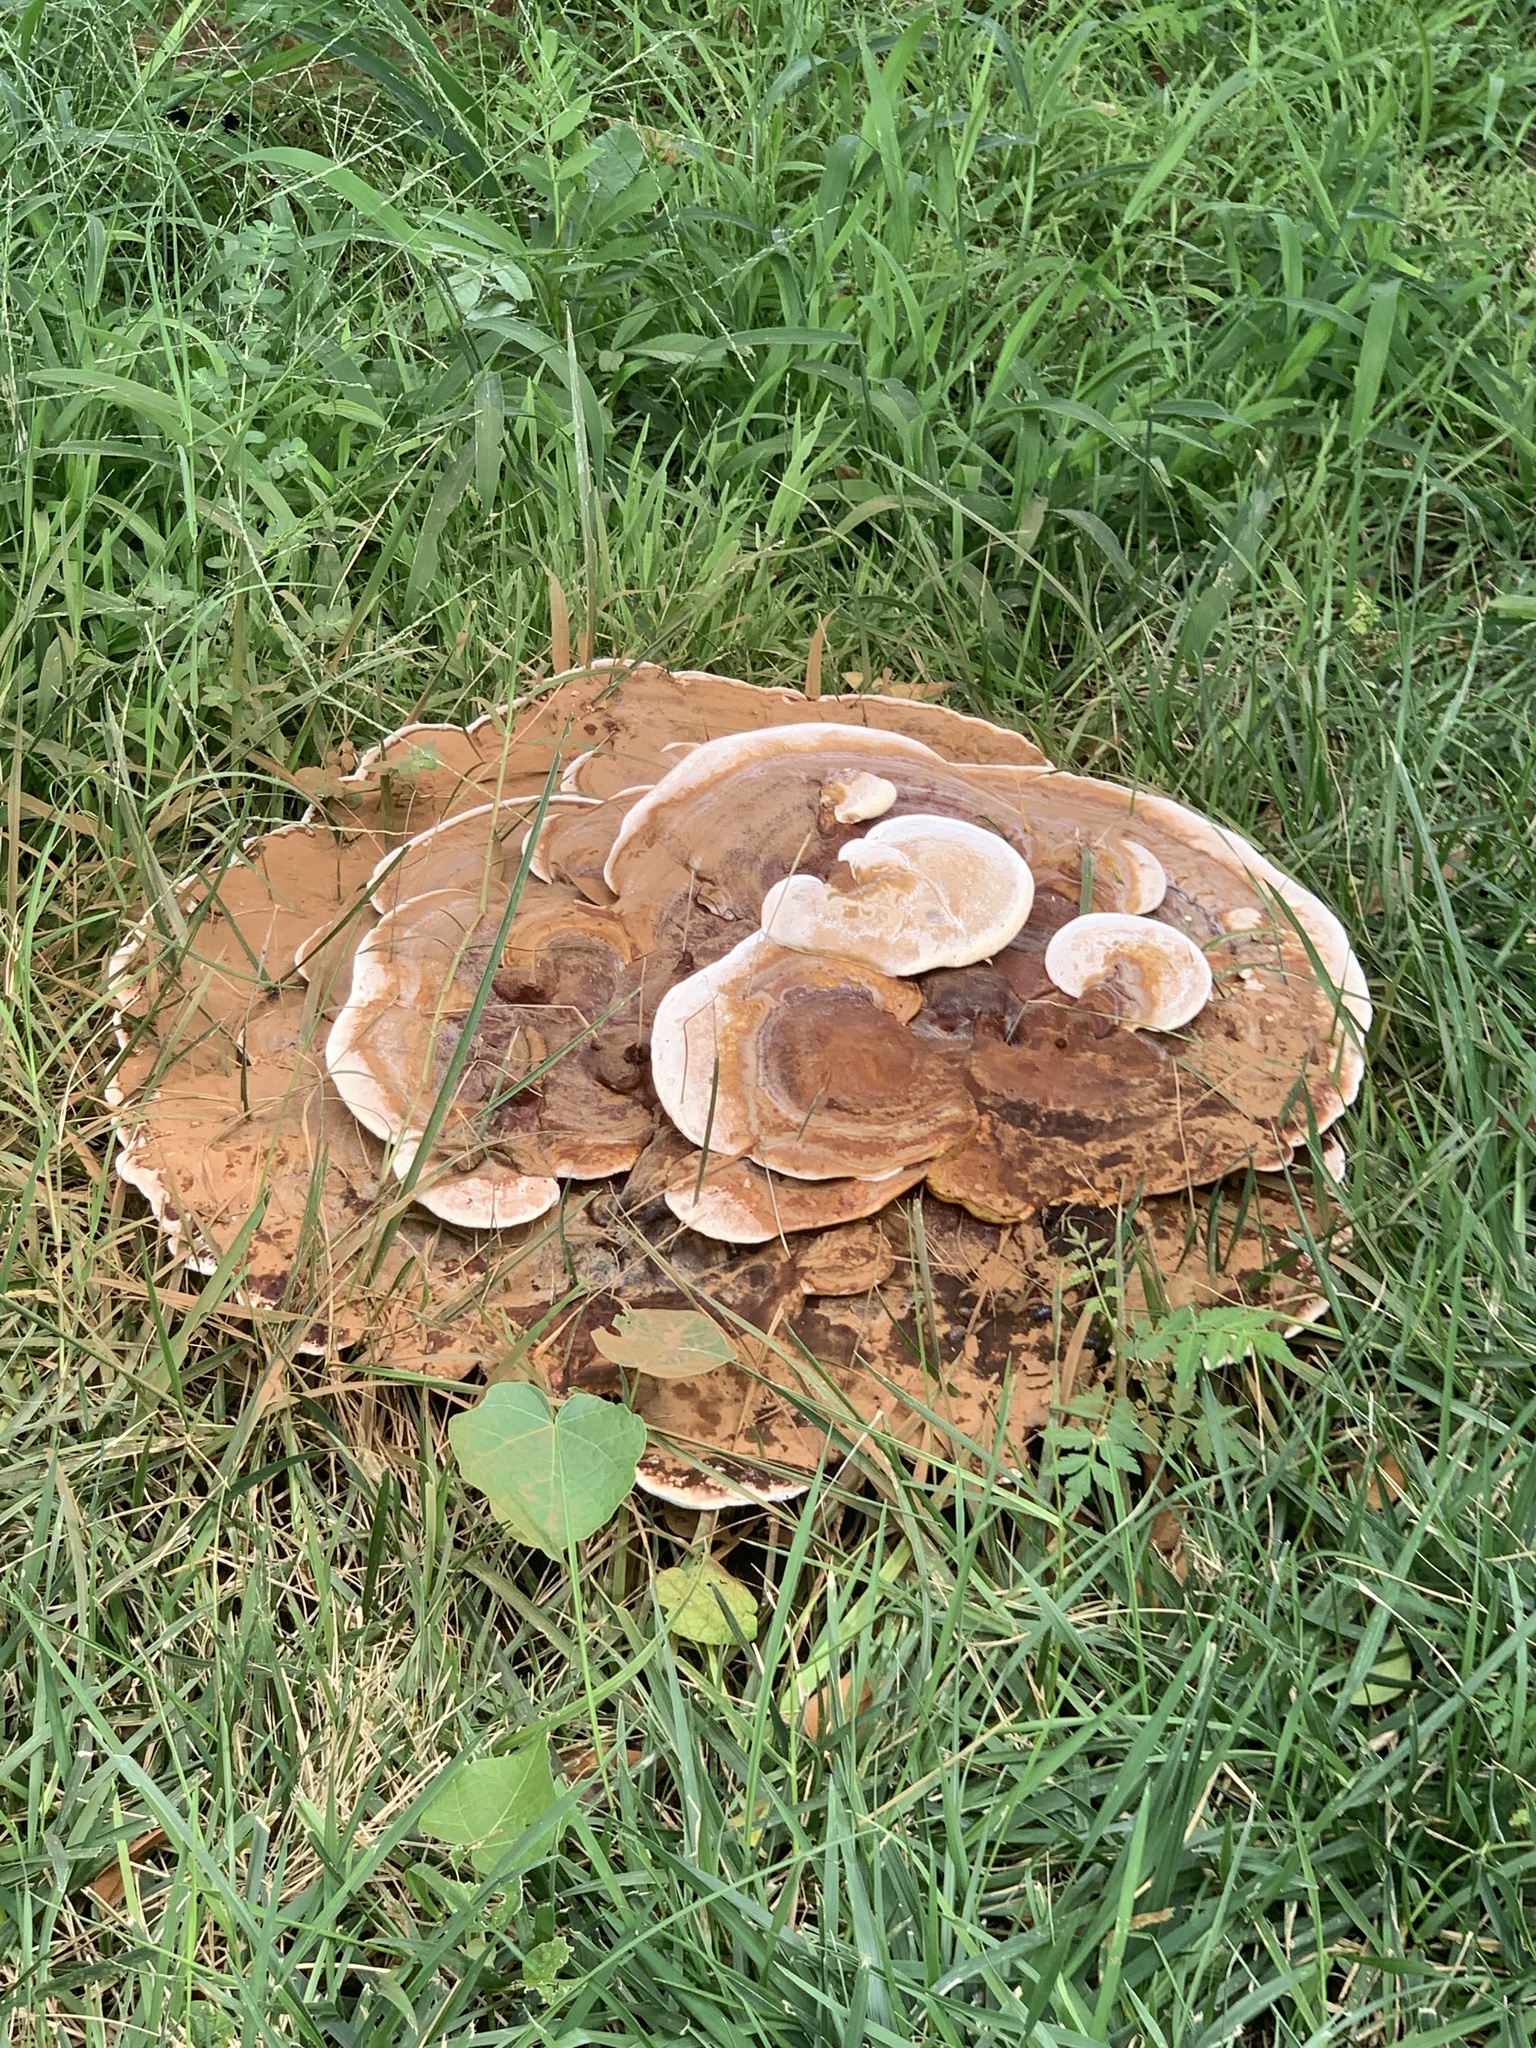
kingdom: Fungi
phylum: Basidiomycota
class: Agaricomycetes
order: Polyporales
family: Polyporaceae
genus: Ganoderma
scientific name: Ganoderma polychromum
